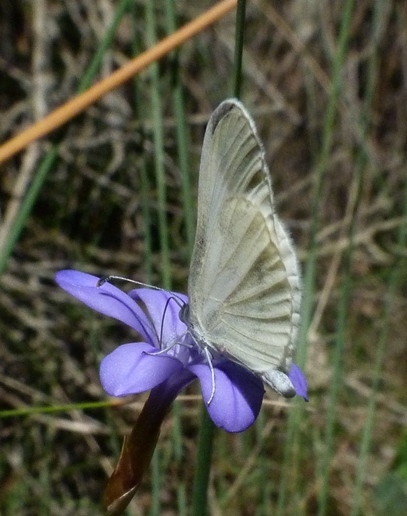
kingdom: Animalia
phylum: Arthropoda
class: Insecta
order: Lepidoptera
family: Pieridae
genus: Leptidea
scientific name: Leptidea sinapis
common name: Wood white
